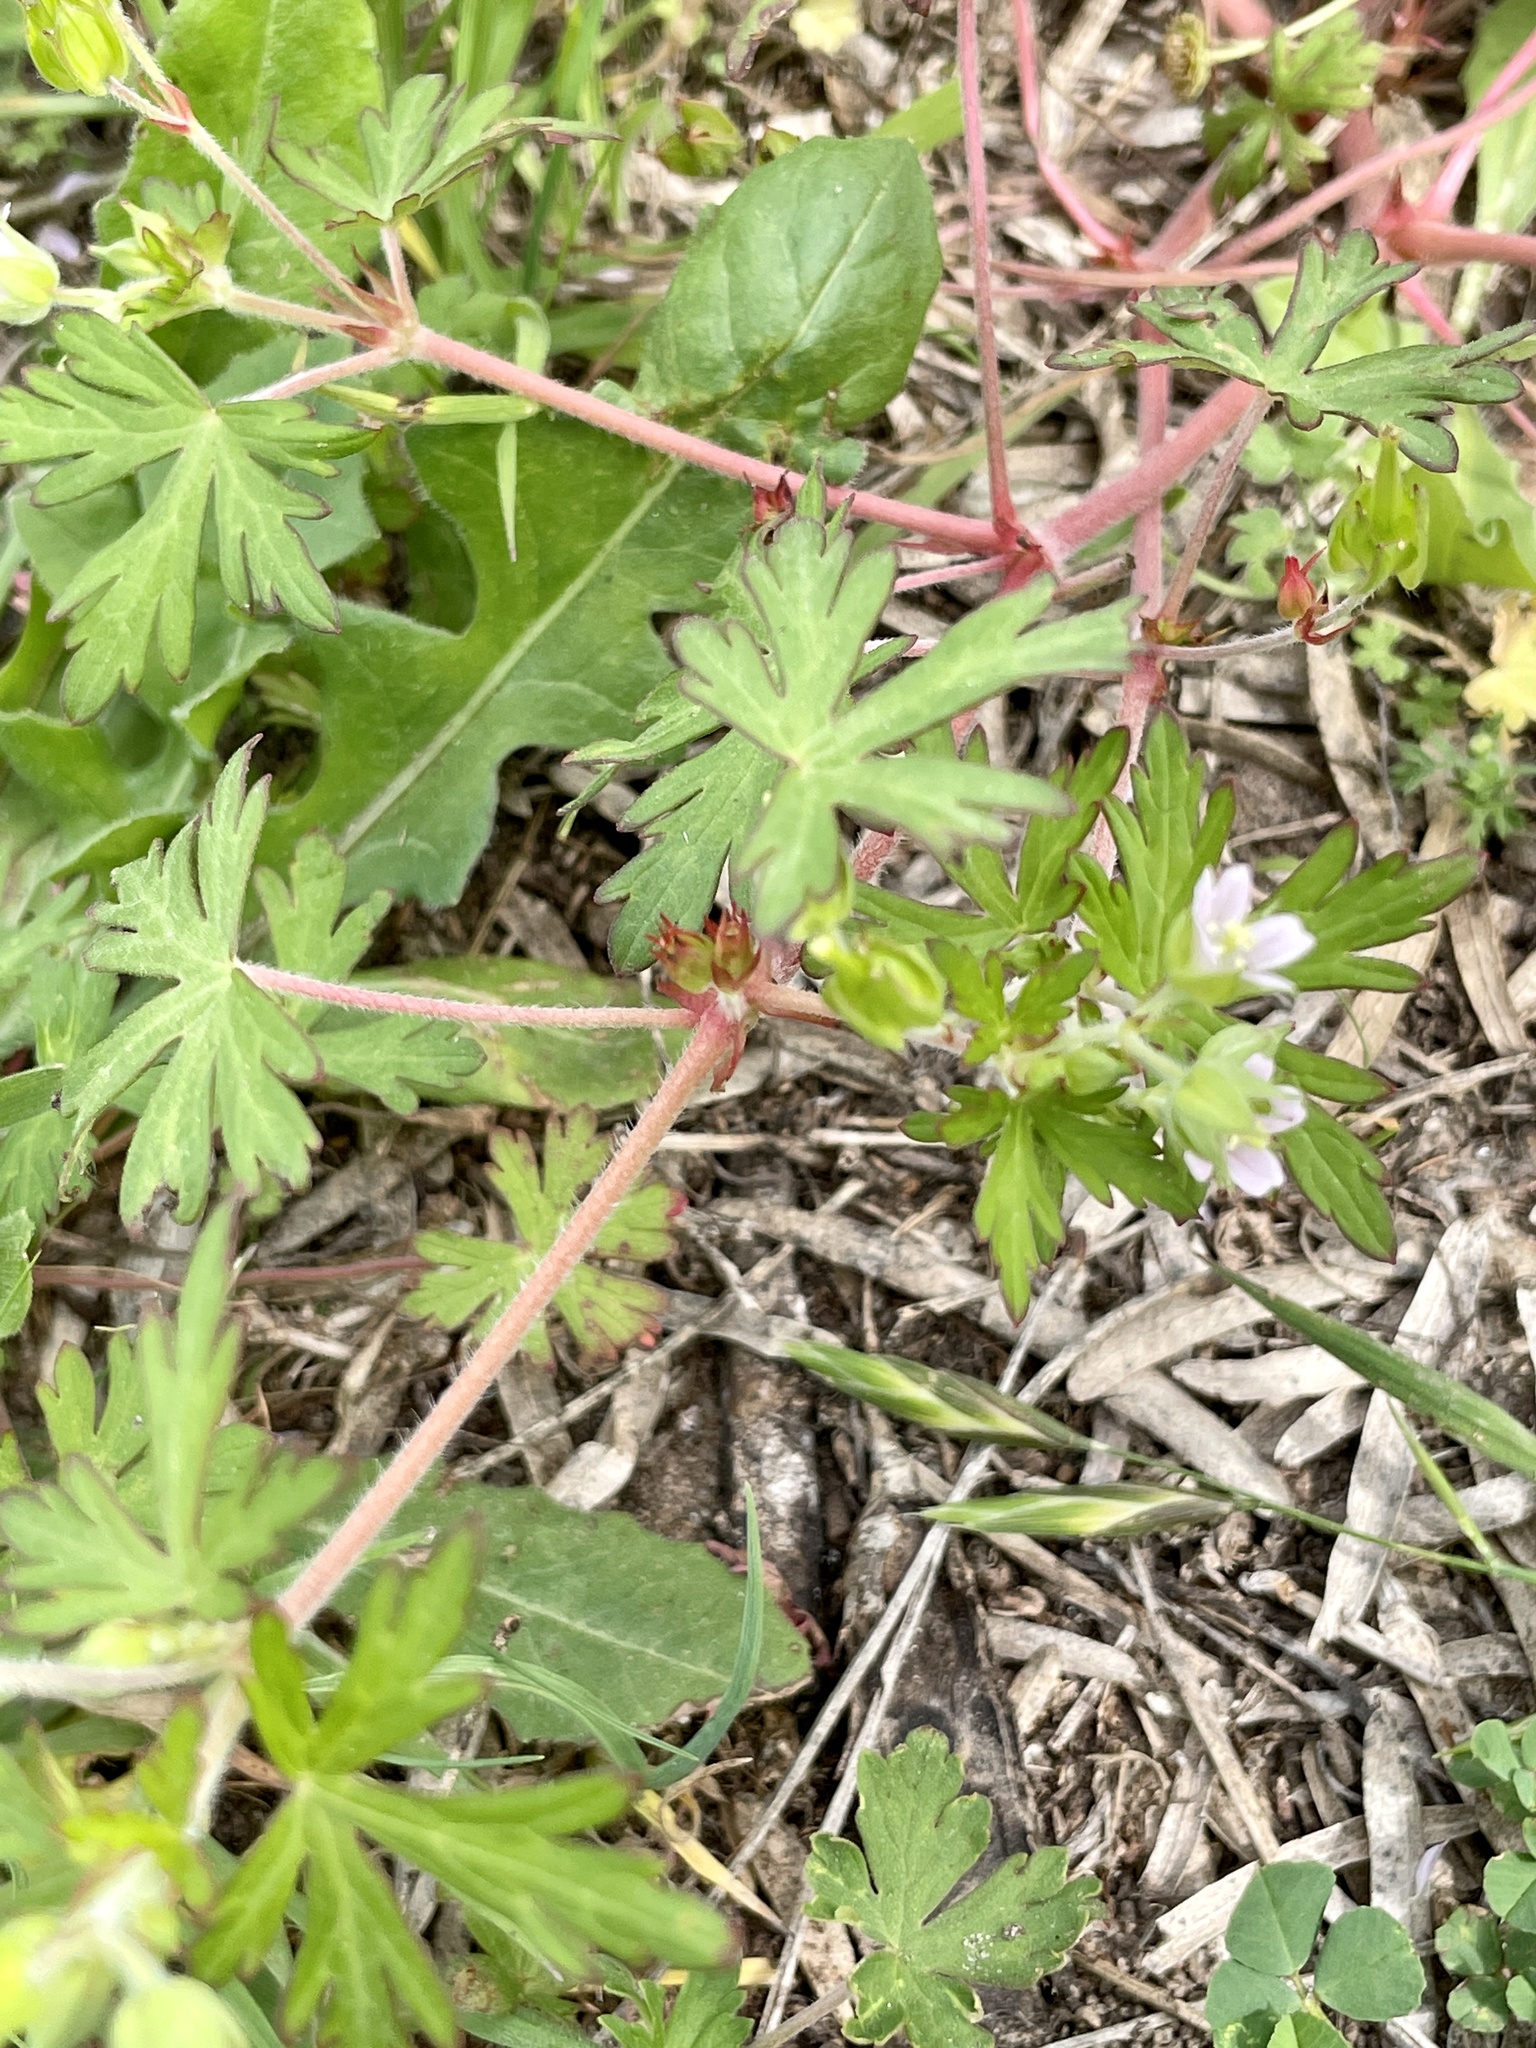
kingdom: Plantae
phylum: Tracheophyta
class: Magnoliopsida
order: Geraniales
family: Geraniaceae
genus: Geranium
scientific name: Geranium carolinianum
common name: Carolina crane's-bill
